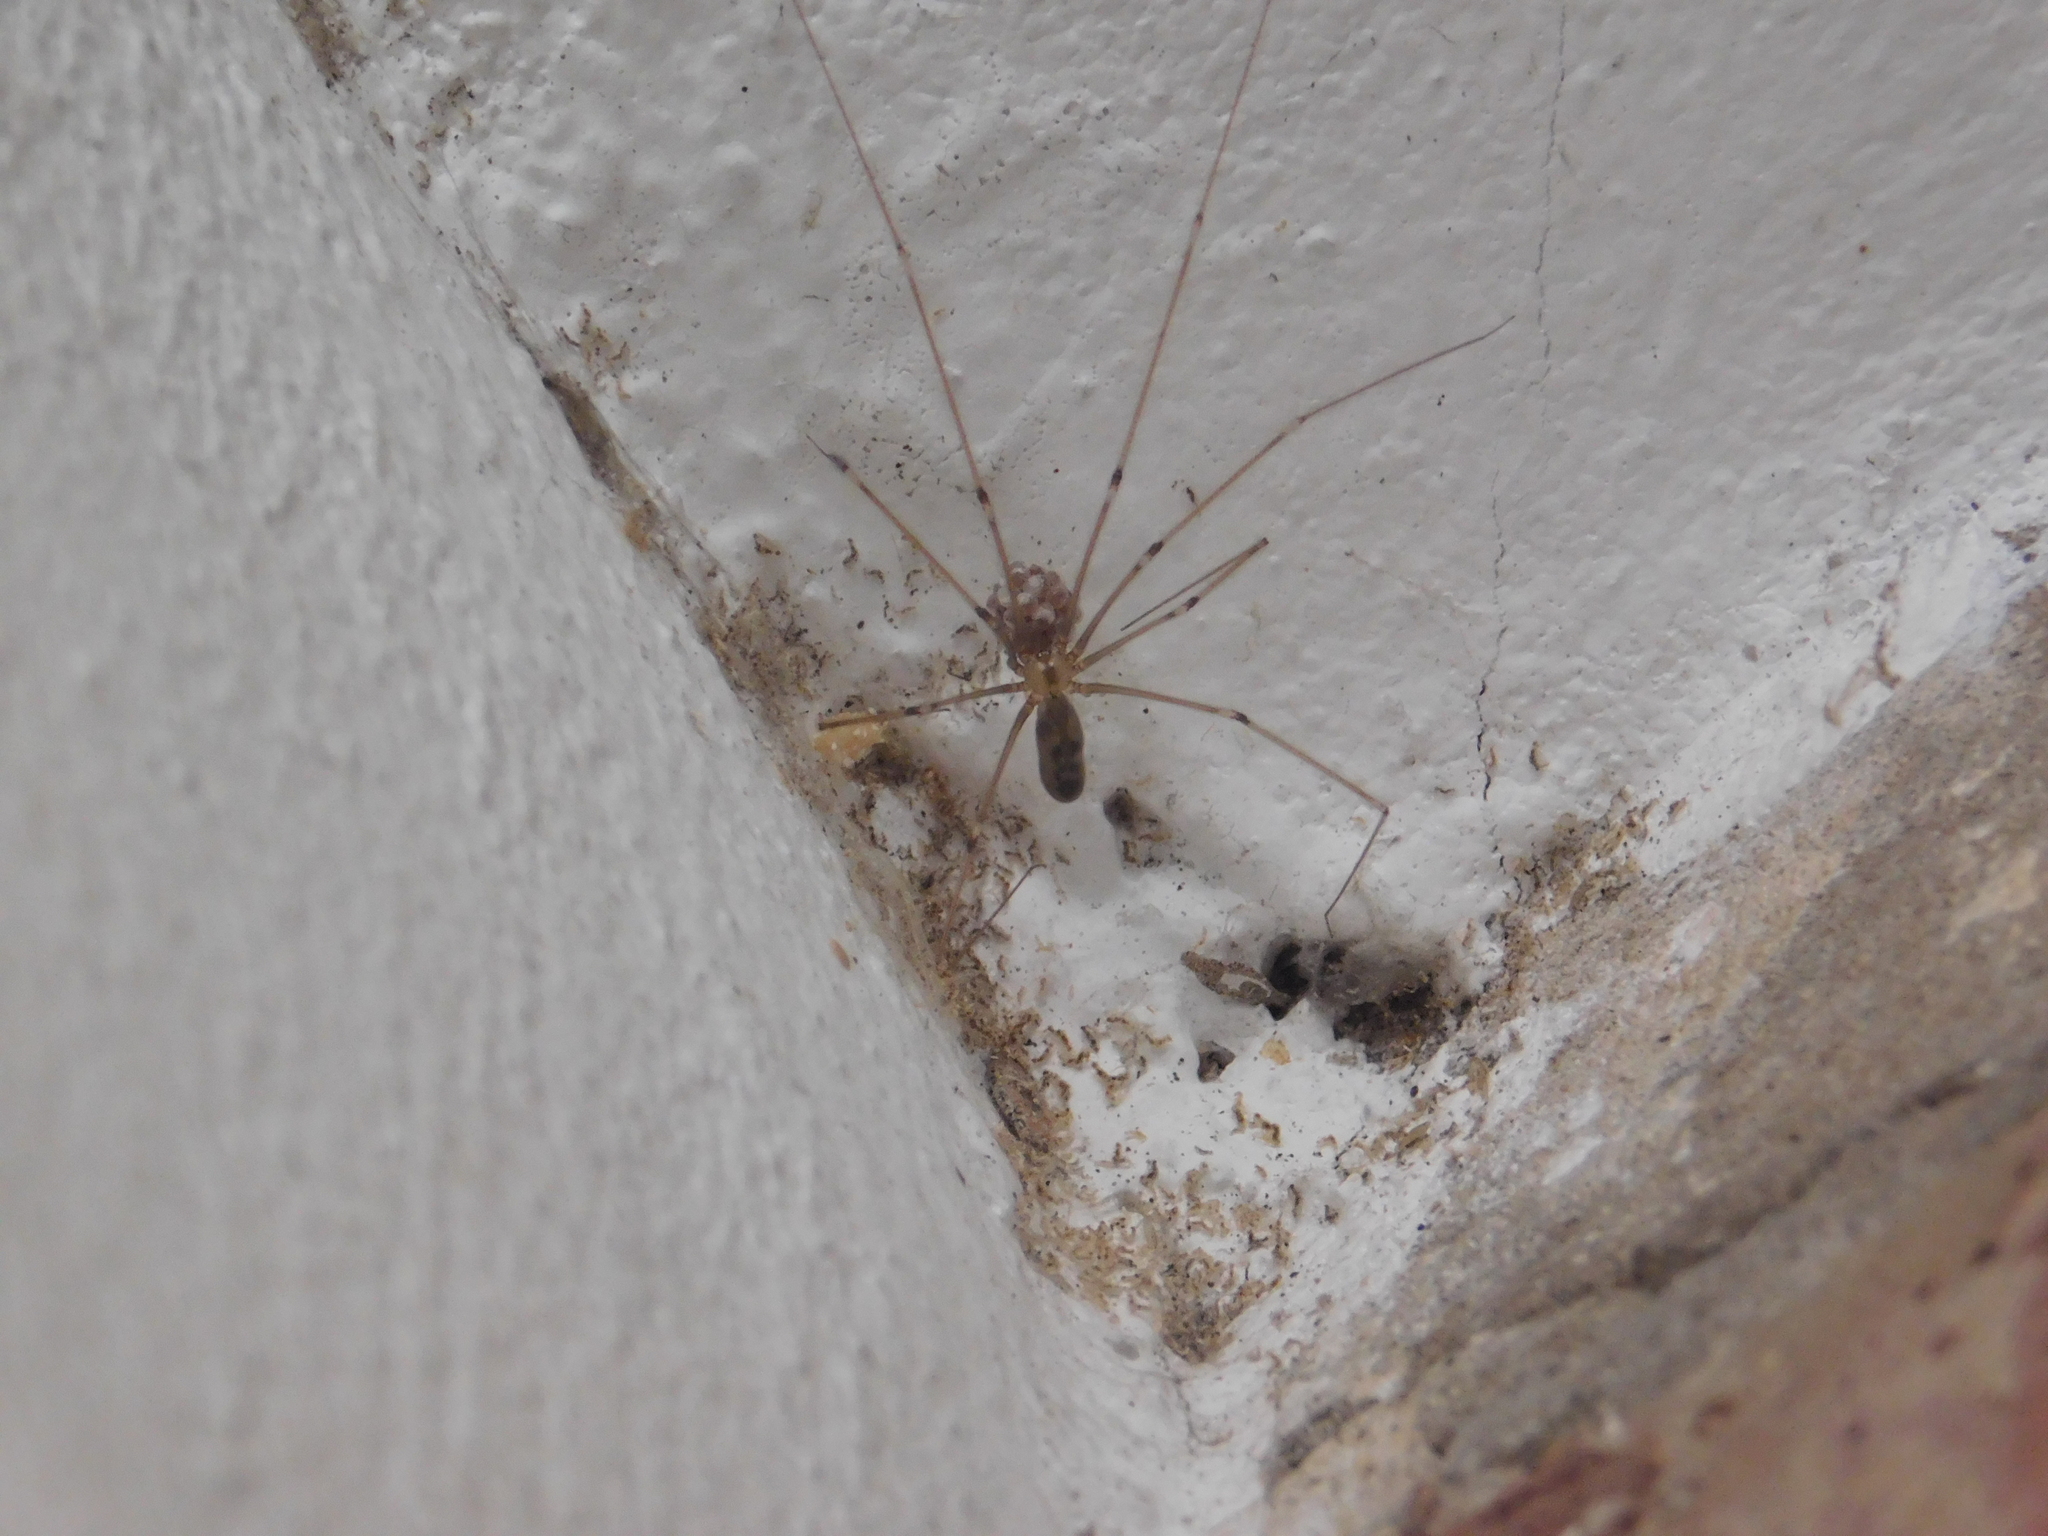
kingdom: Animalia
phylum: Arthropoda
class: Arachnida
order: Araneae
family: Pholcidae
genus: Pholcus
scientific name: Pholcus phalangioides
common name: Longbodied cellar spider
